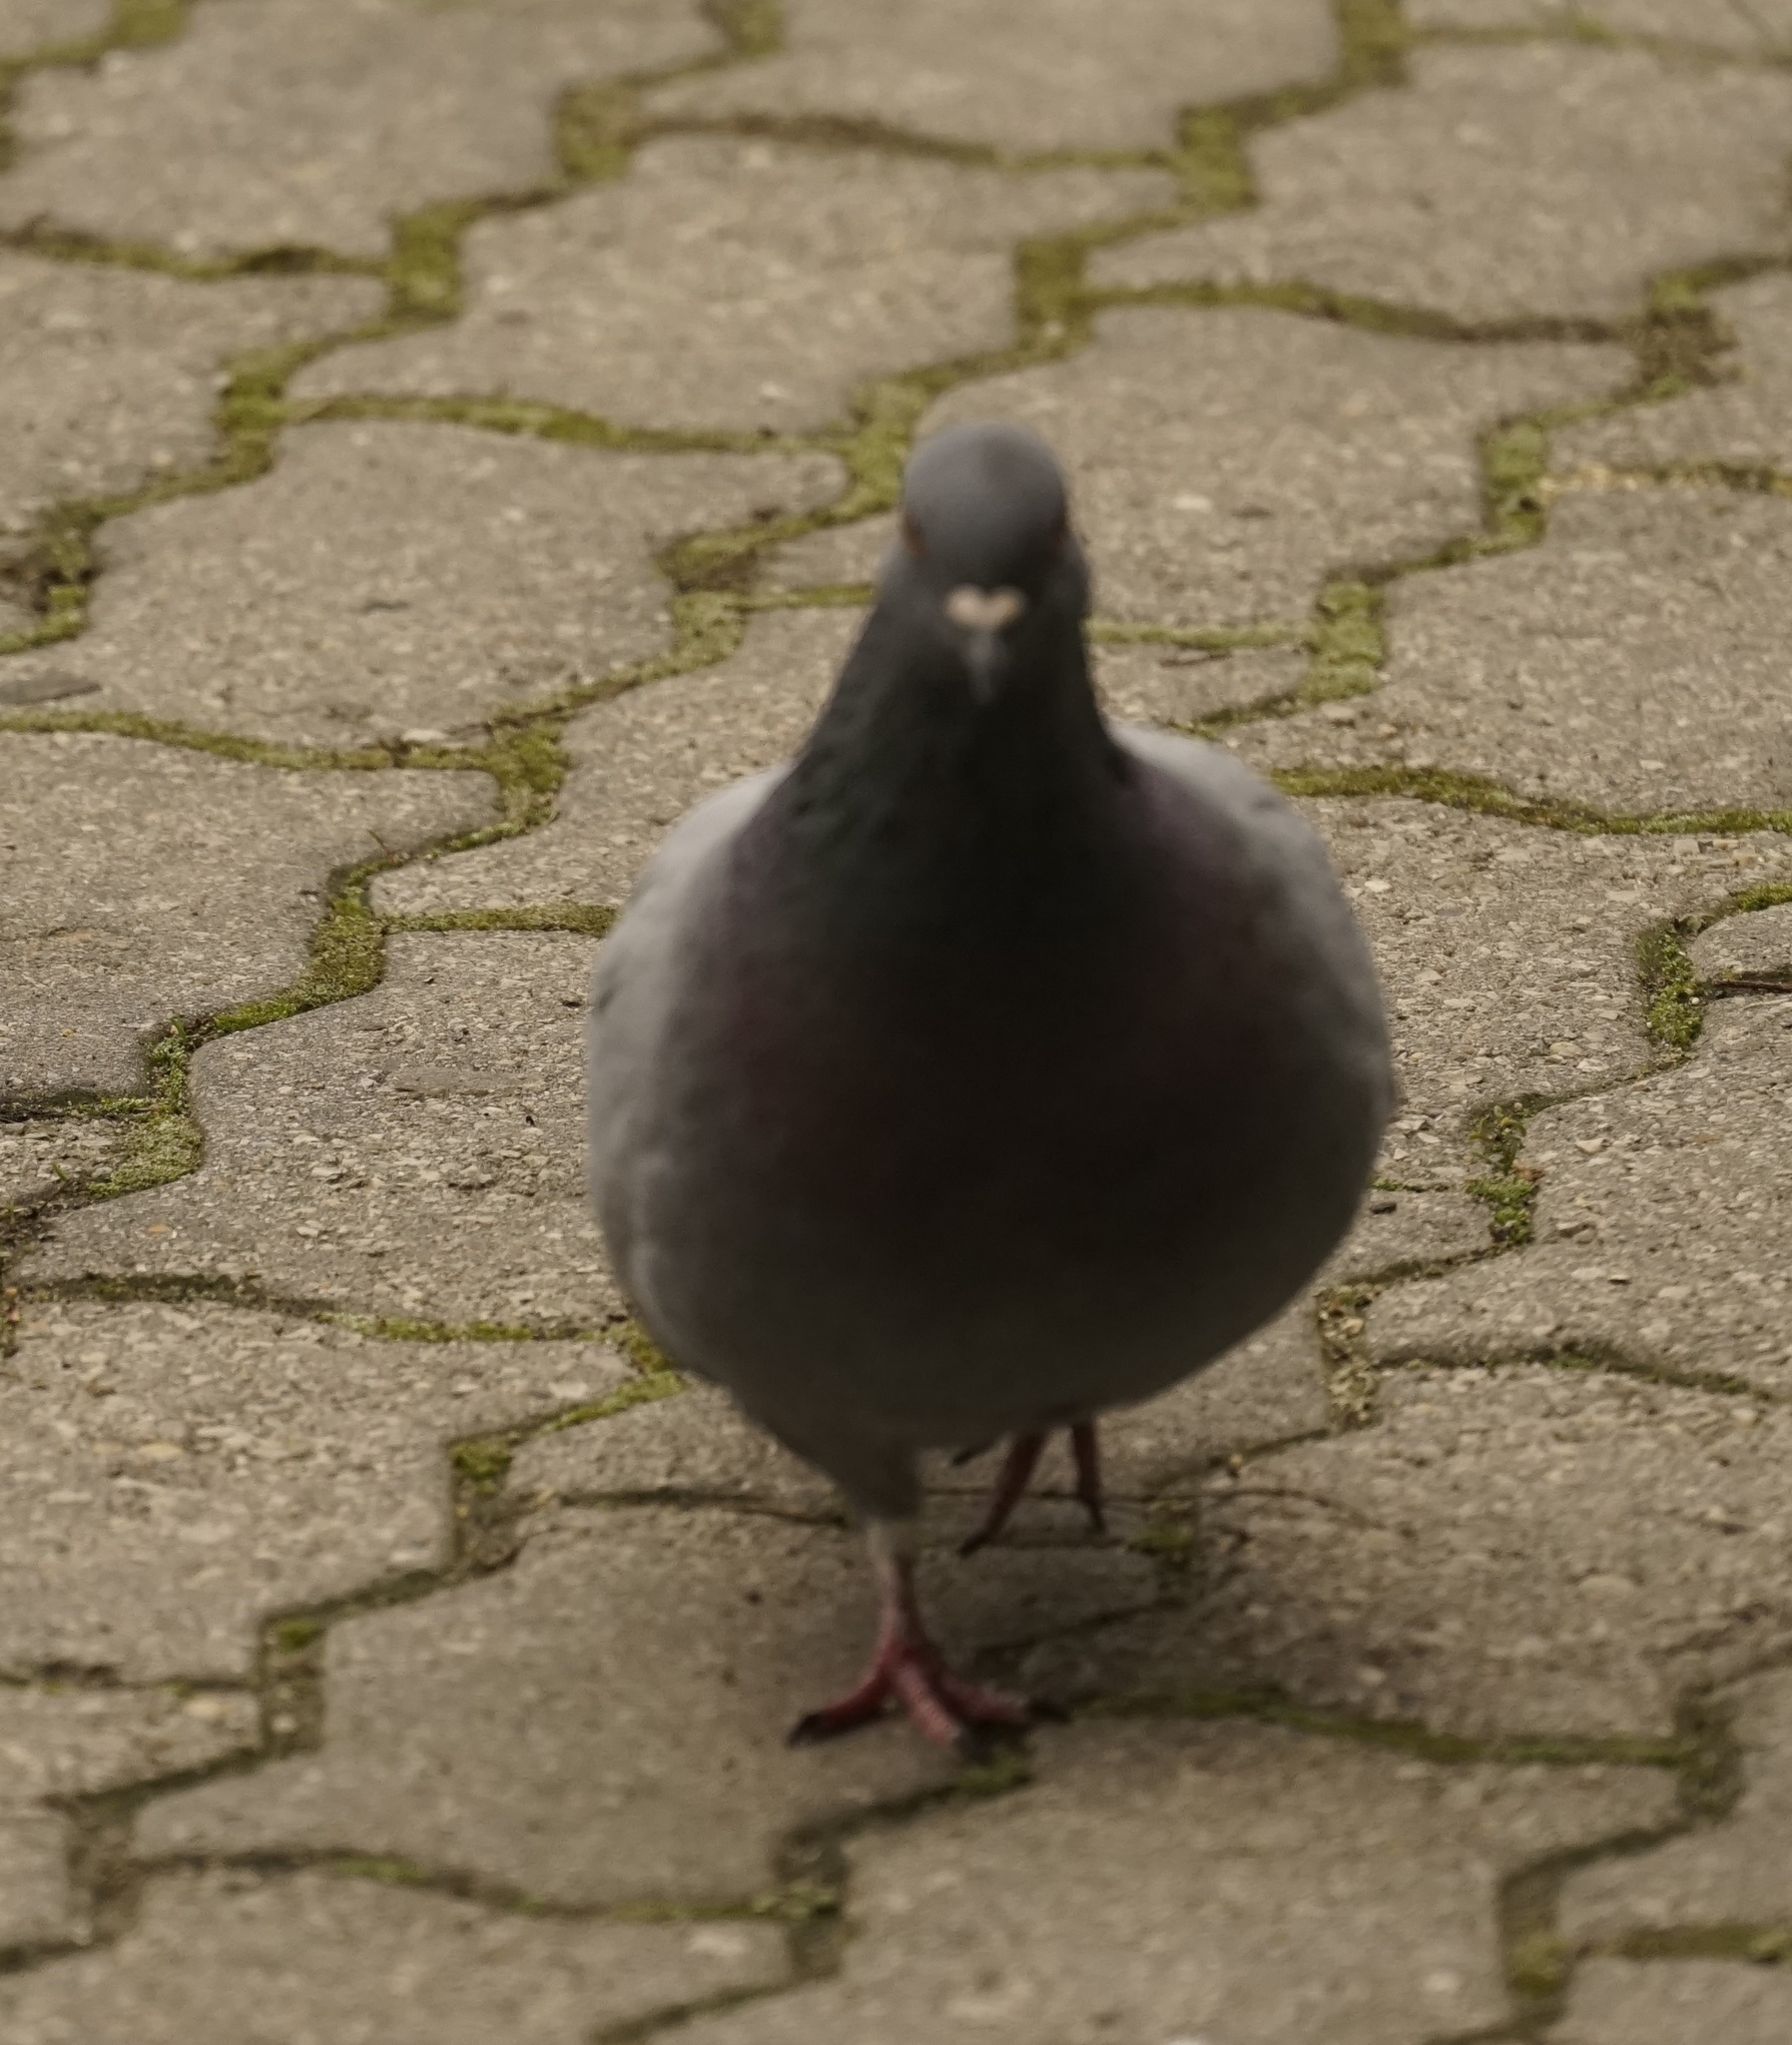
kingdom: Animalia
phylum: Chordata
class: Aves
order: Columbiformes
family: Columbidae
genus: Columba
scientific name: Columba livia
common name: Rock pigeon
